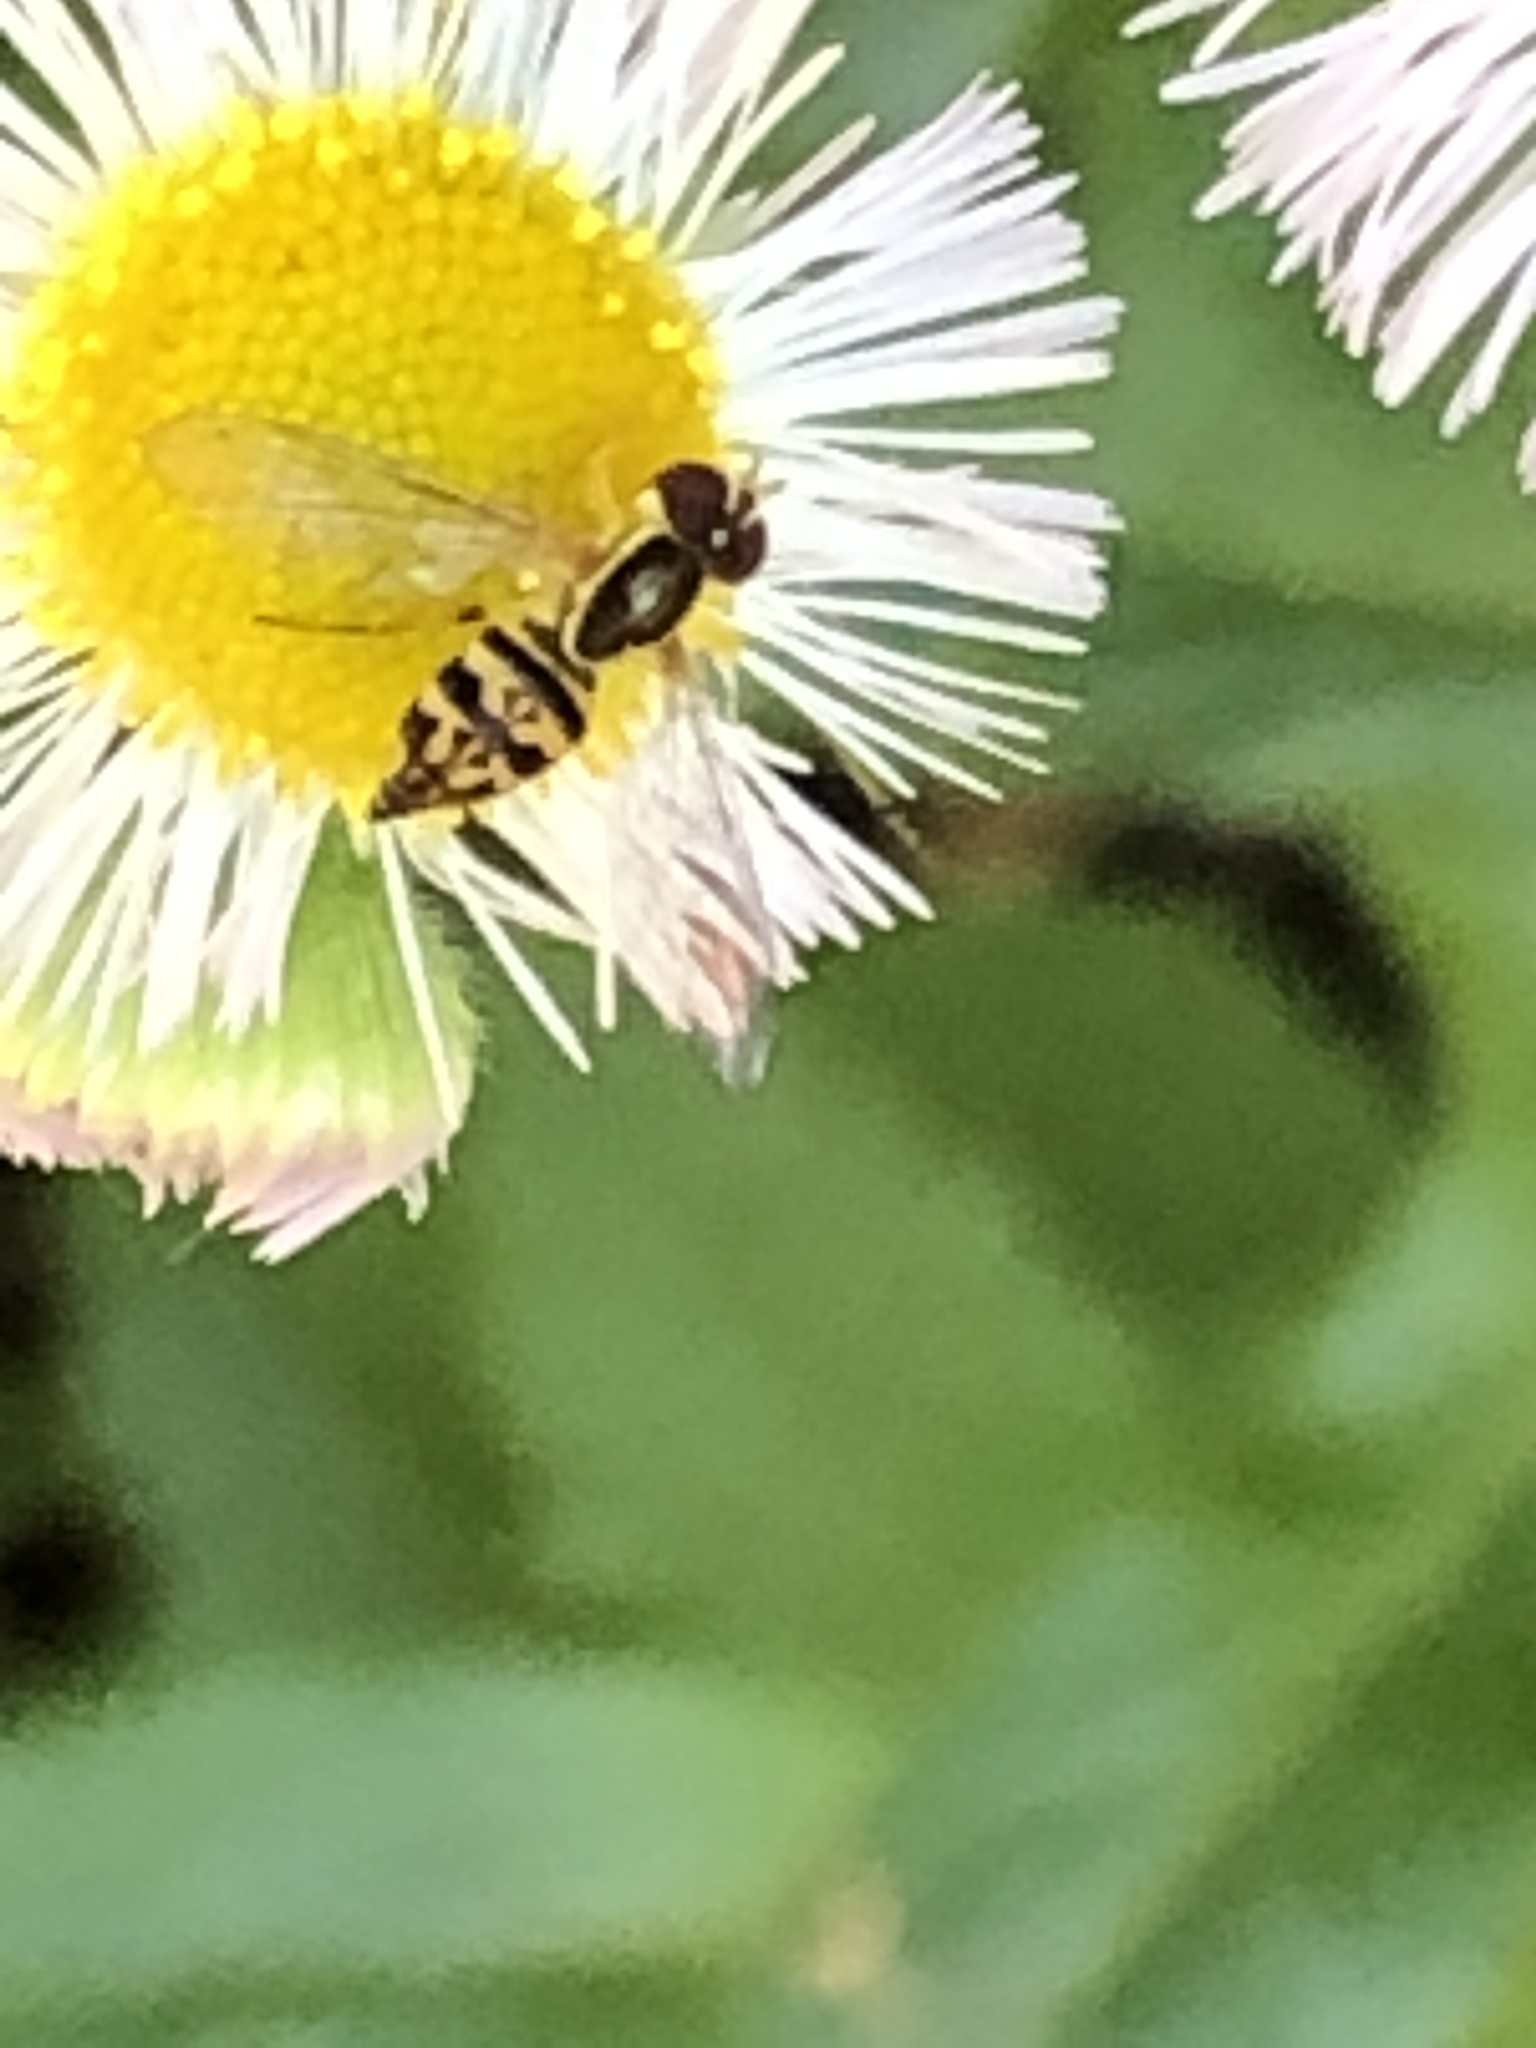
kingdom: Animalia
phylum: Arthropoda
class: Insecta
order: Diptera
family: Syrphidae
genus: Toxomerus
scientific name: Toxomerus geminatus
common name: Eastern calligrapher
